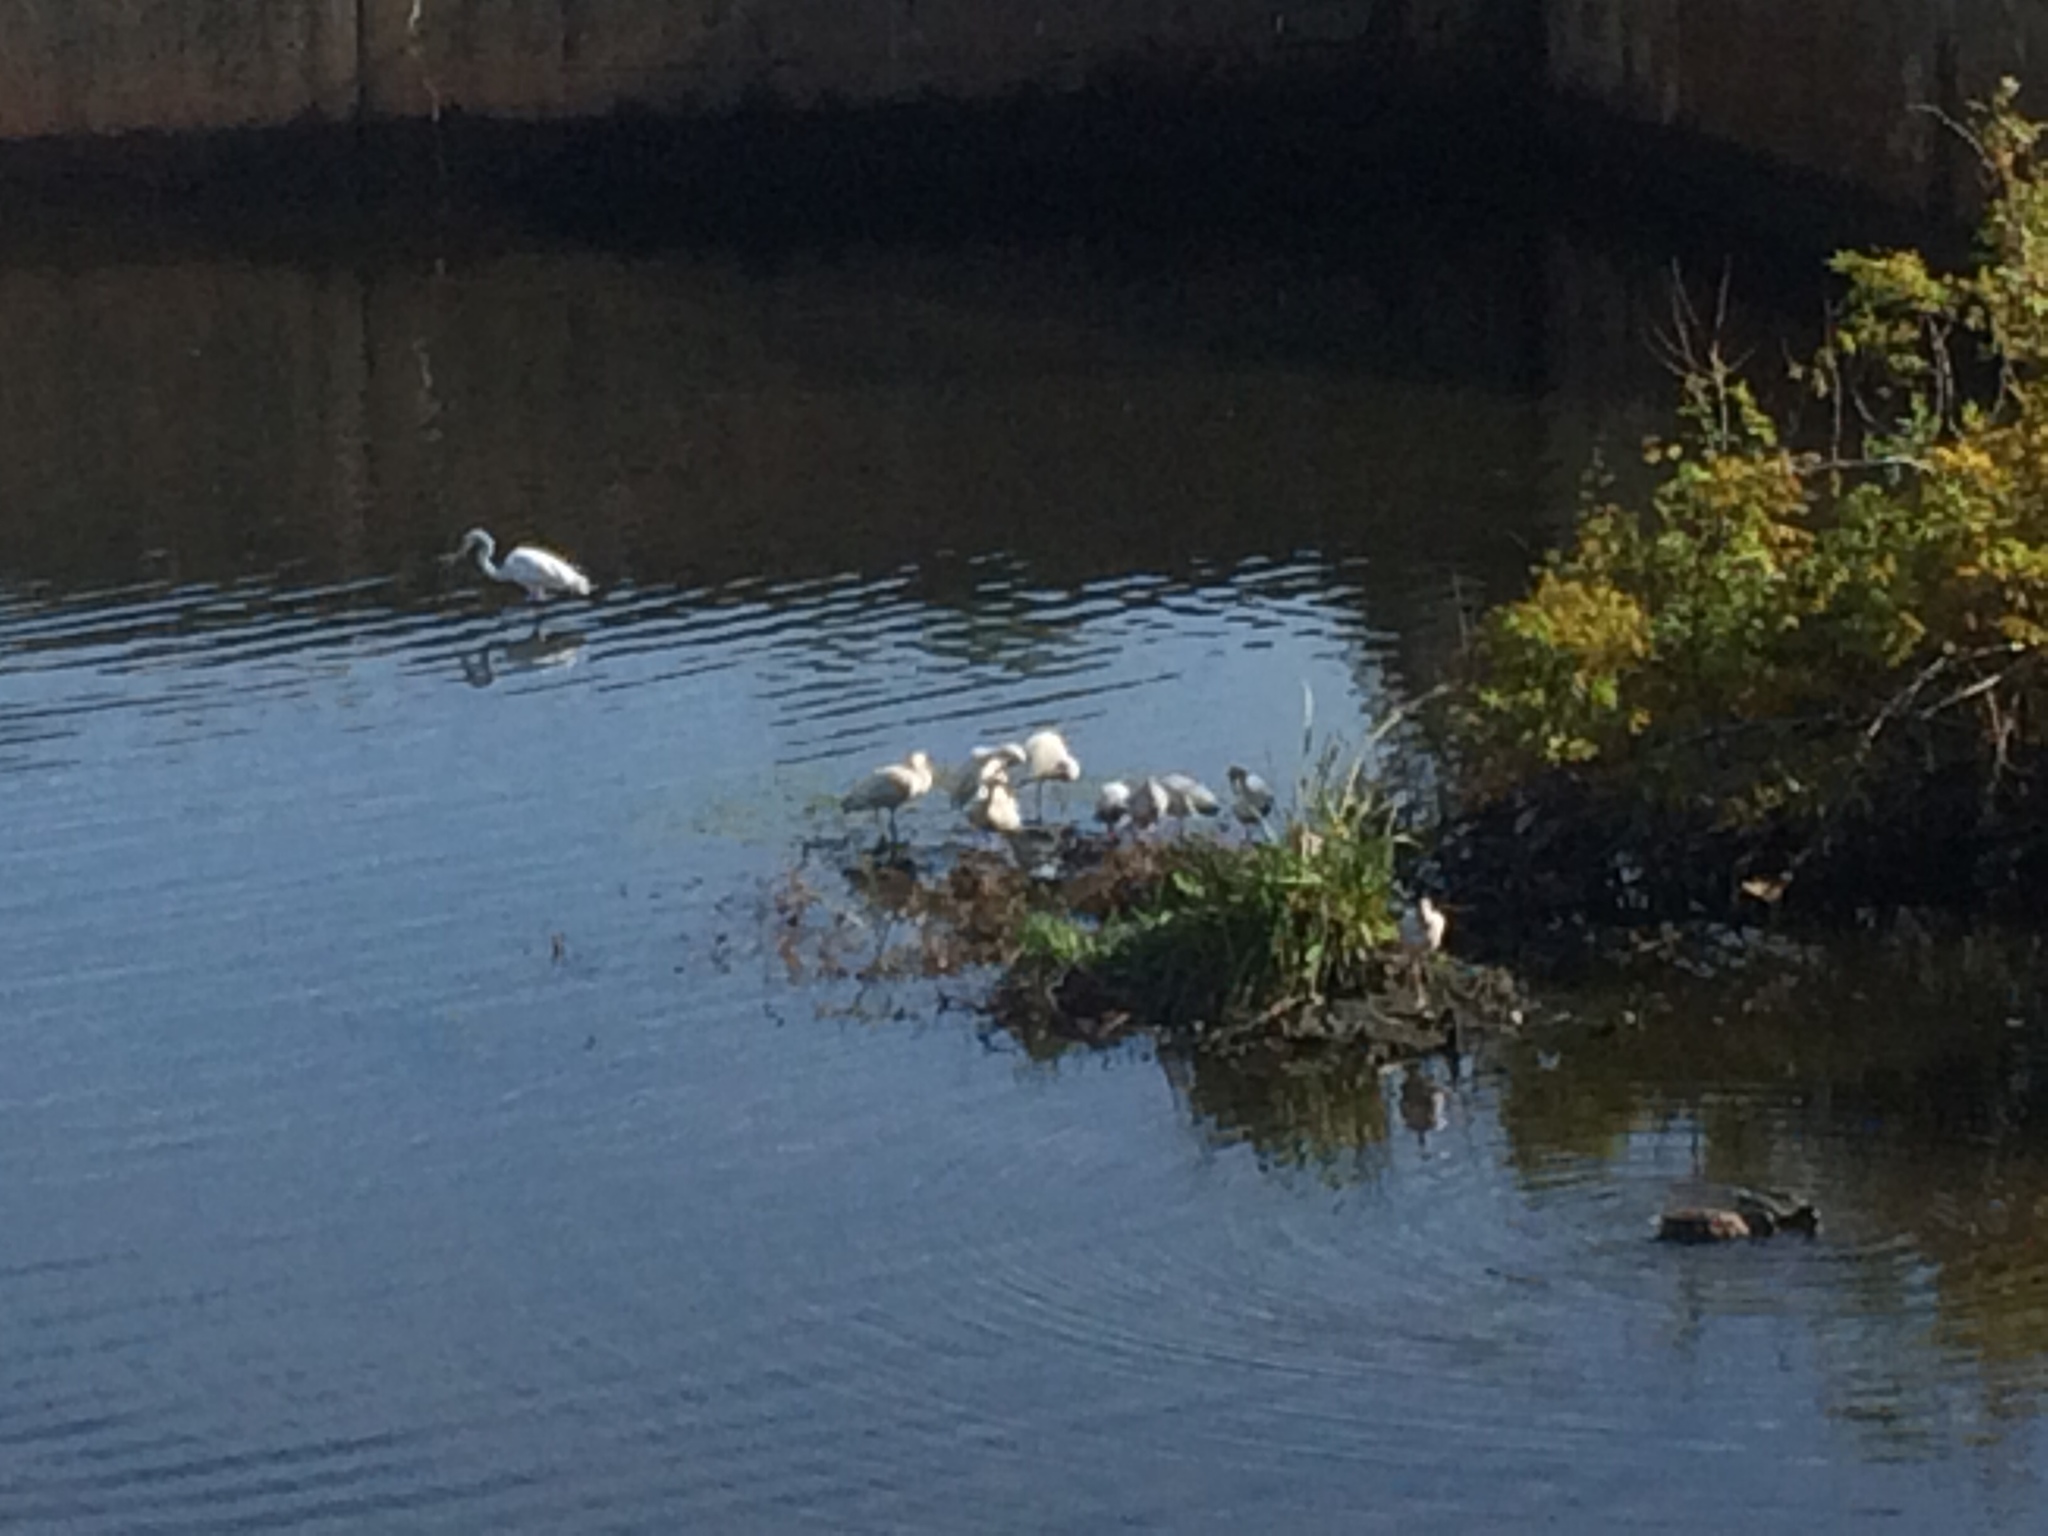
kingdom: Animalia
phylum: Chordata
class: Aves
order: Pelecaniformes
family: Threskiornithidae
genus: Eudocimus
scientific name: Eudocimus albus
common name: White ibis
